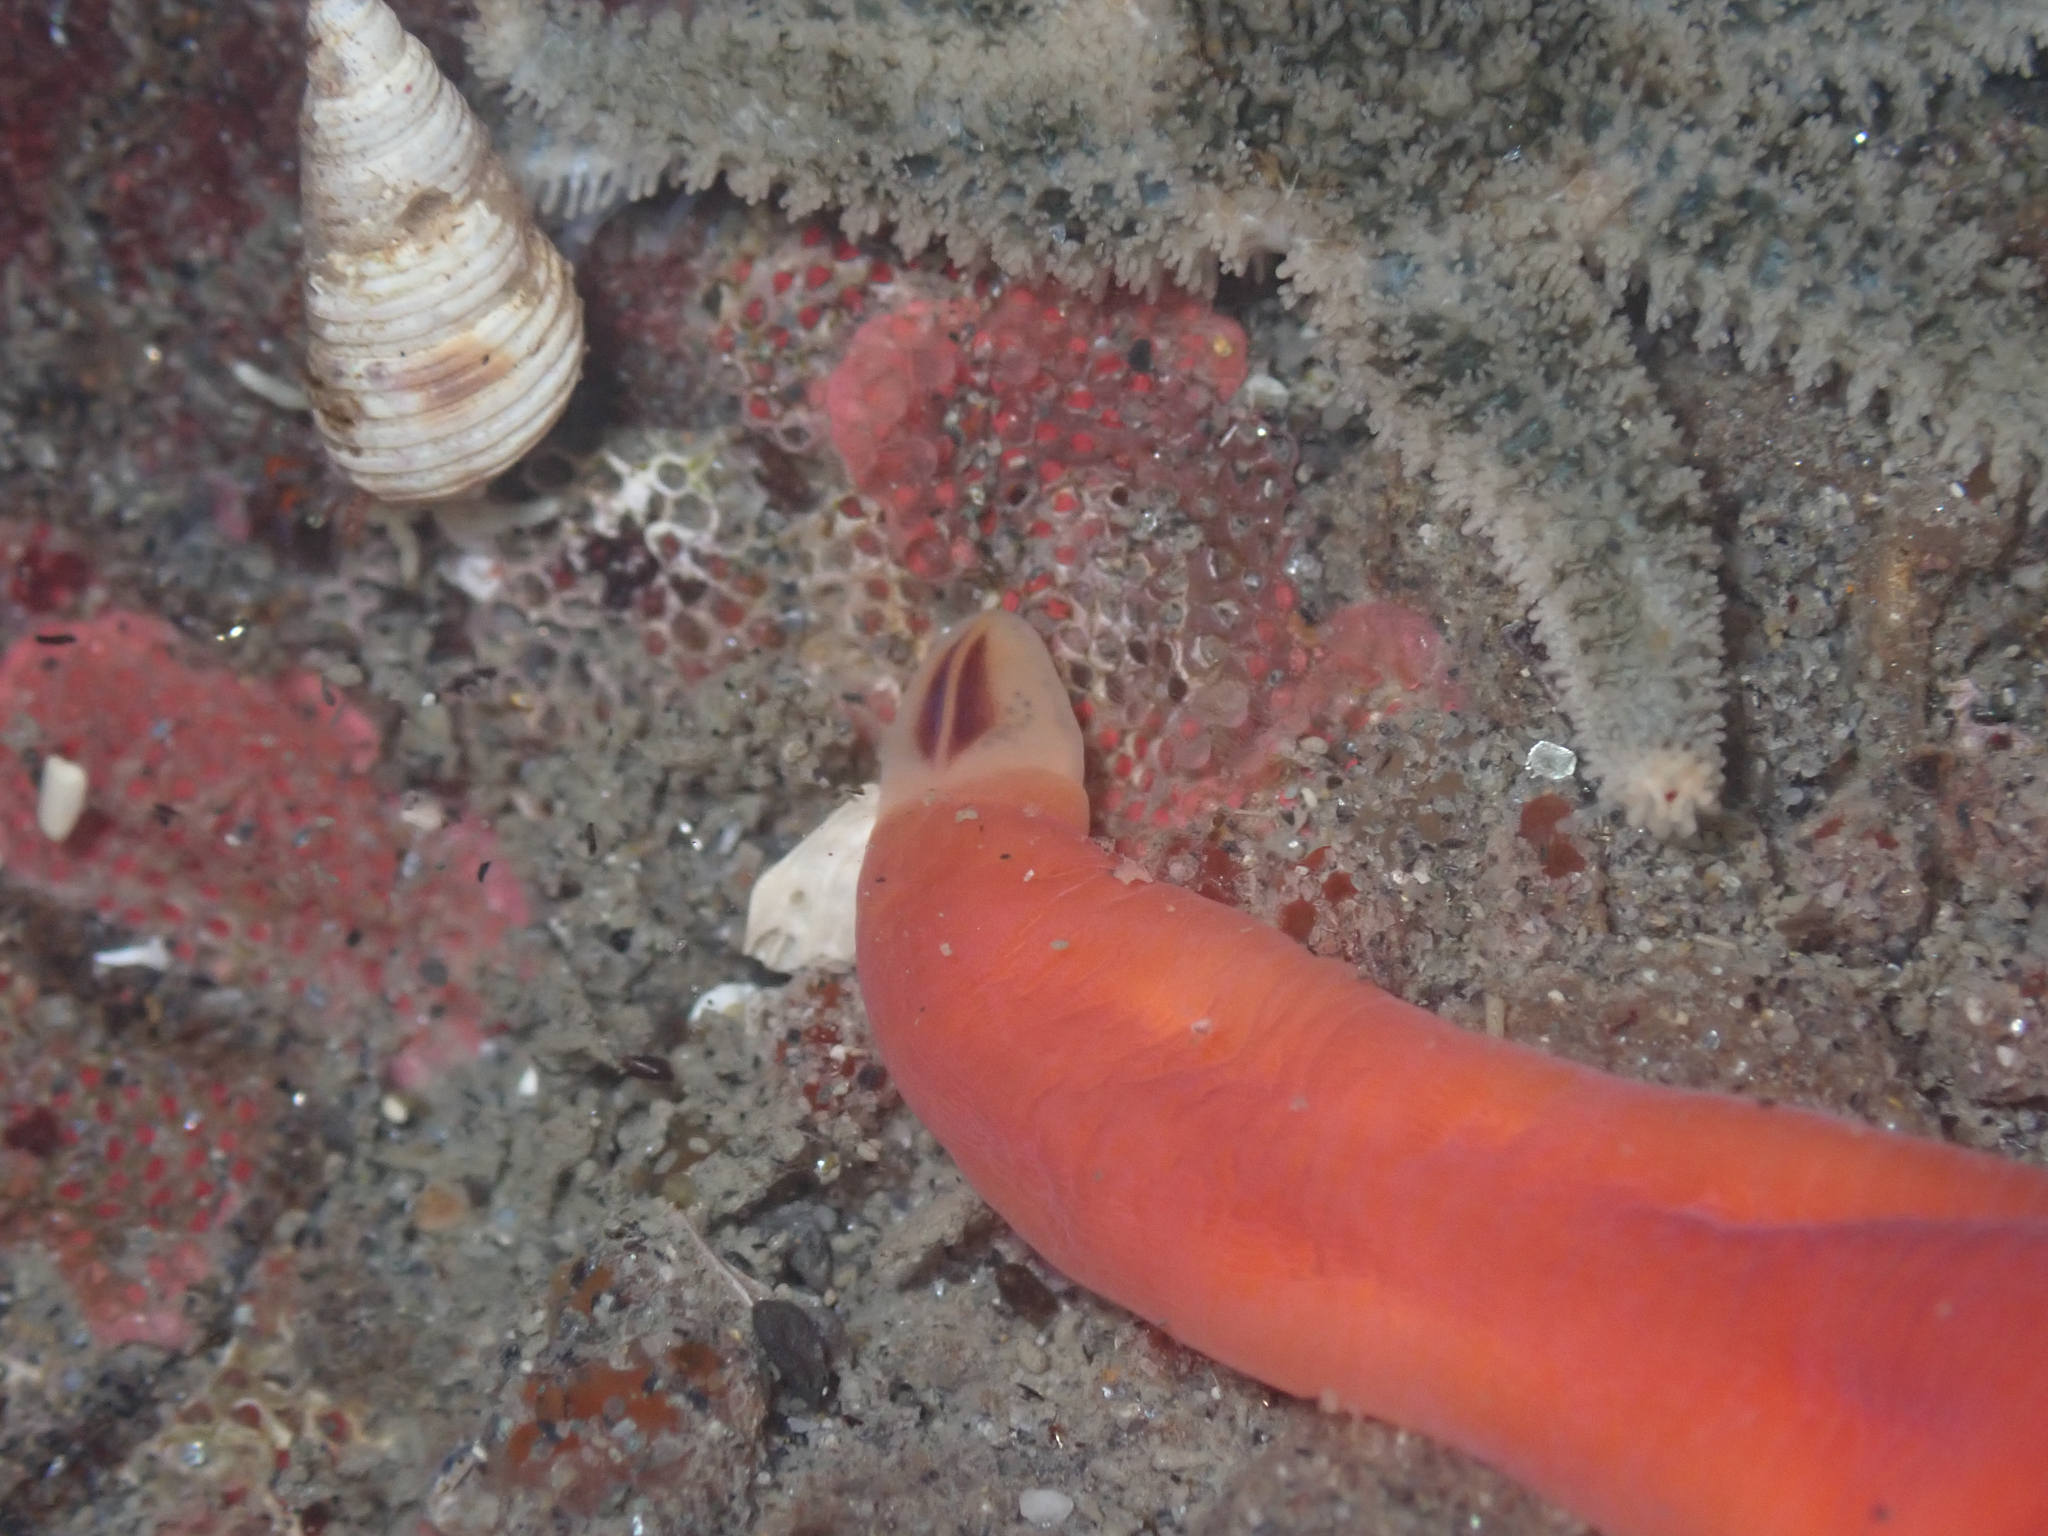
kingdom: Animalia
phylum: Nemertea
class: Hoplonemertea
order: Monostilifera
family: Cratenemertidae
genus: Nipponnemertes
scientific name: Nipponnemertes bimaculata
